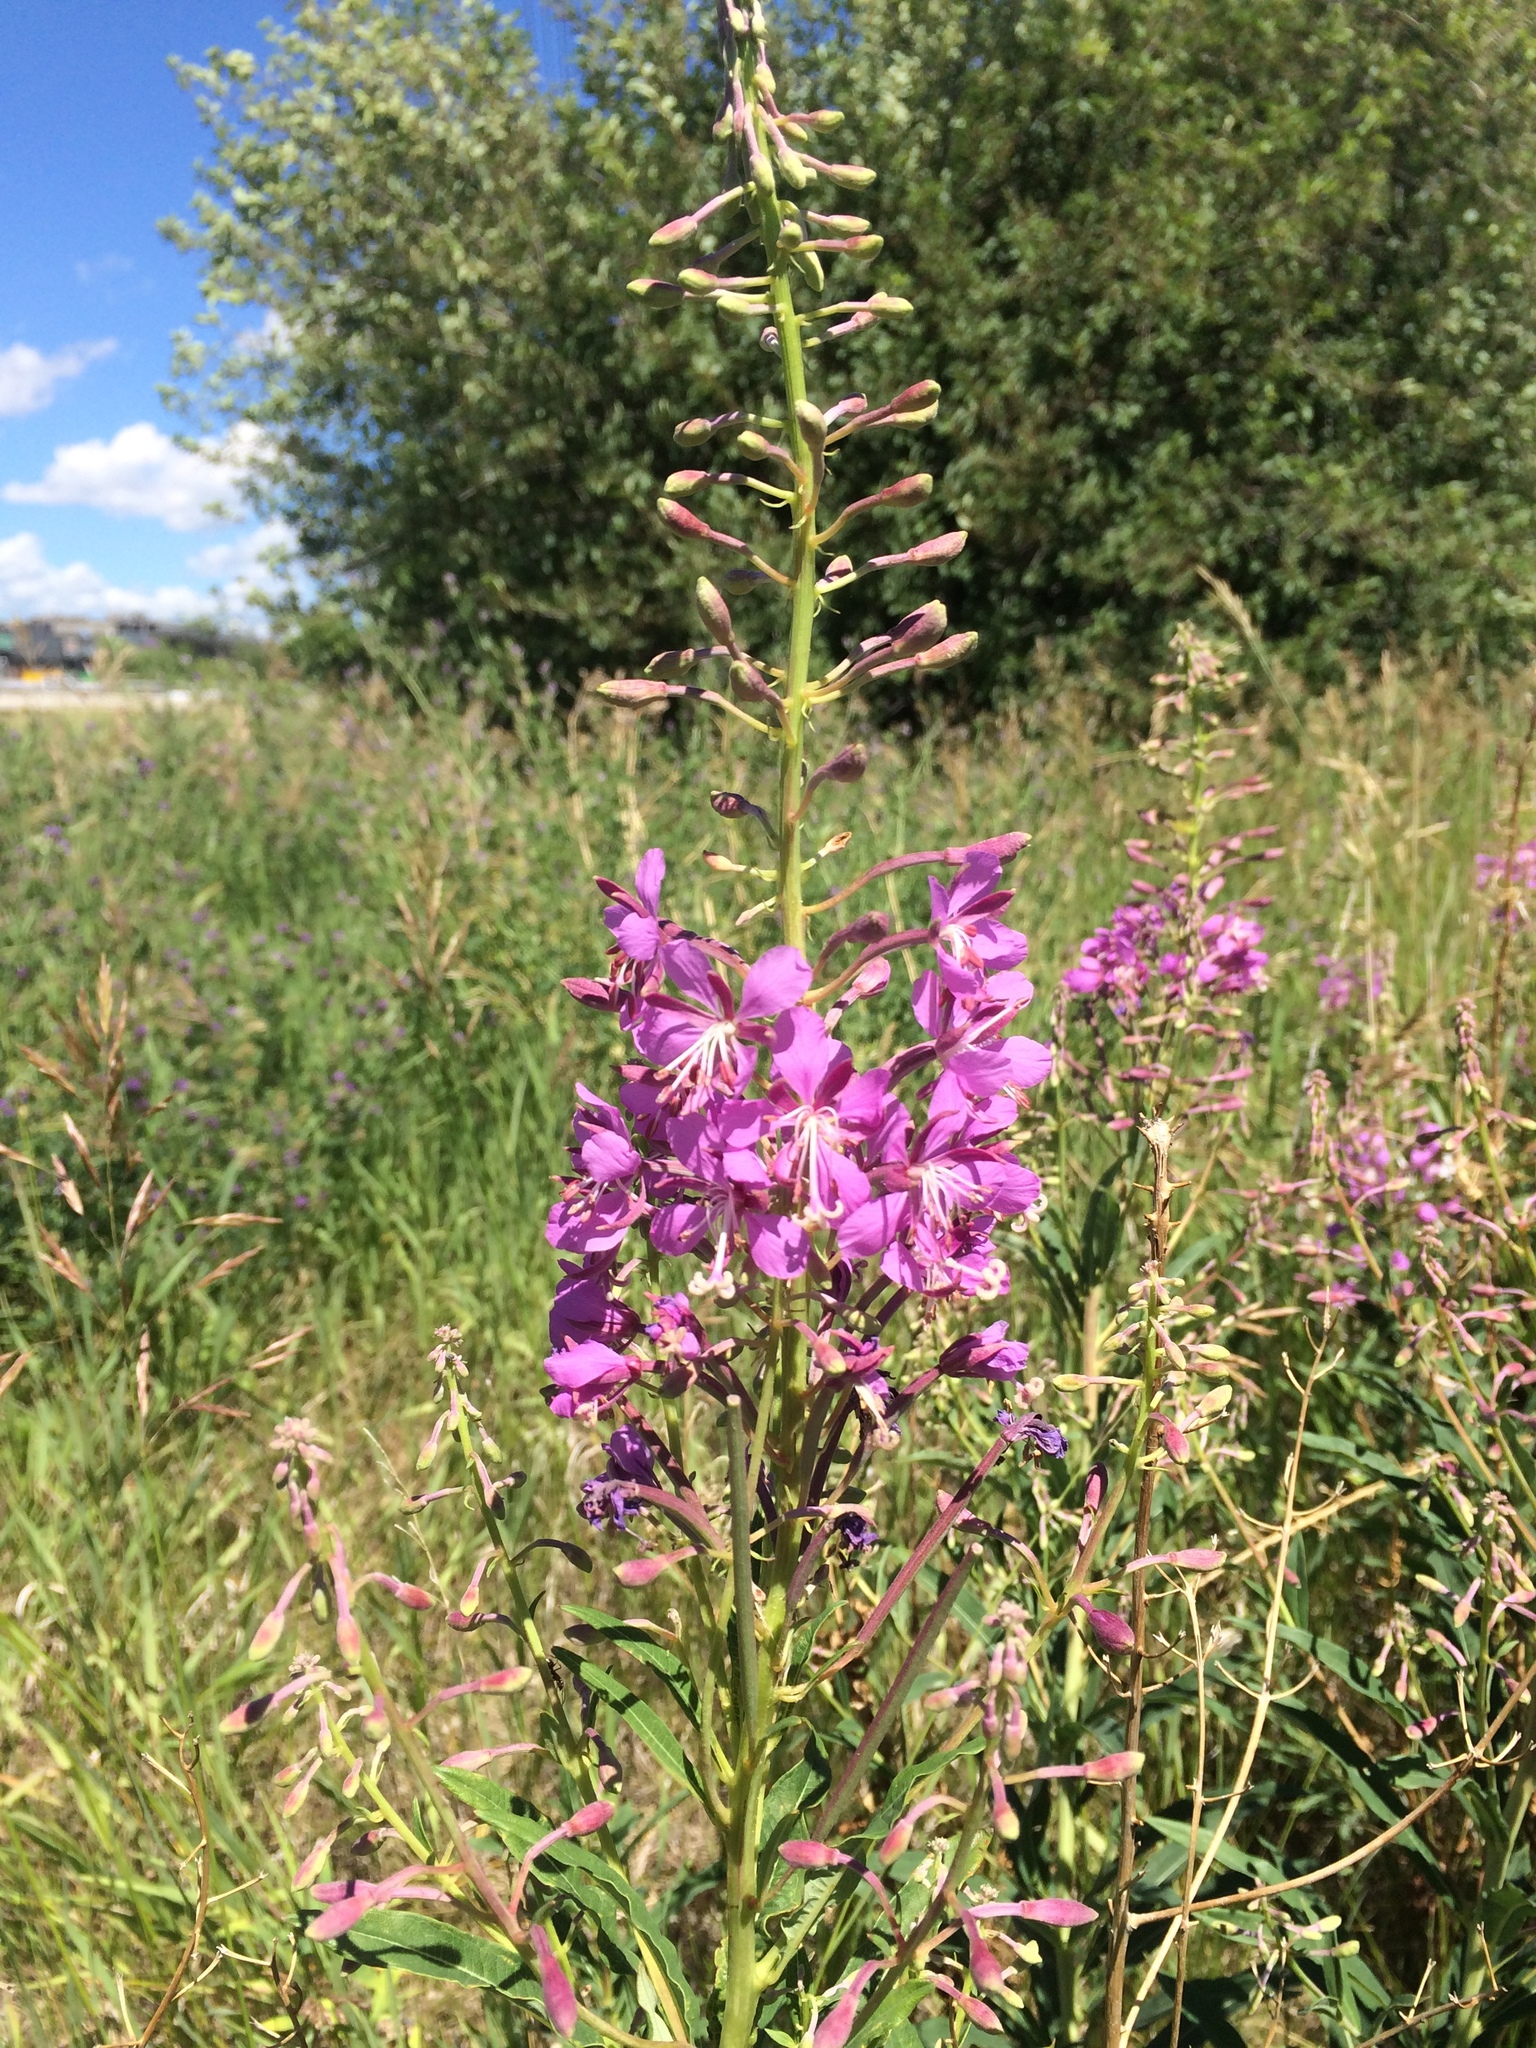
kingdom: Plantae
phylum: Tracheophyta
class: Magnoliopsida
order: Myrtales
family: Onagraceae
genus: Chamaenerion
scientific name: Chamaenerion angustifolium
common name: Fireweed
